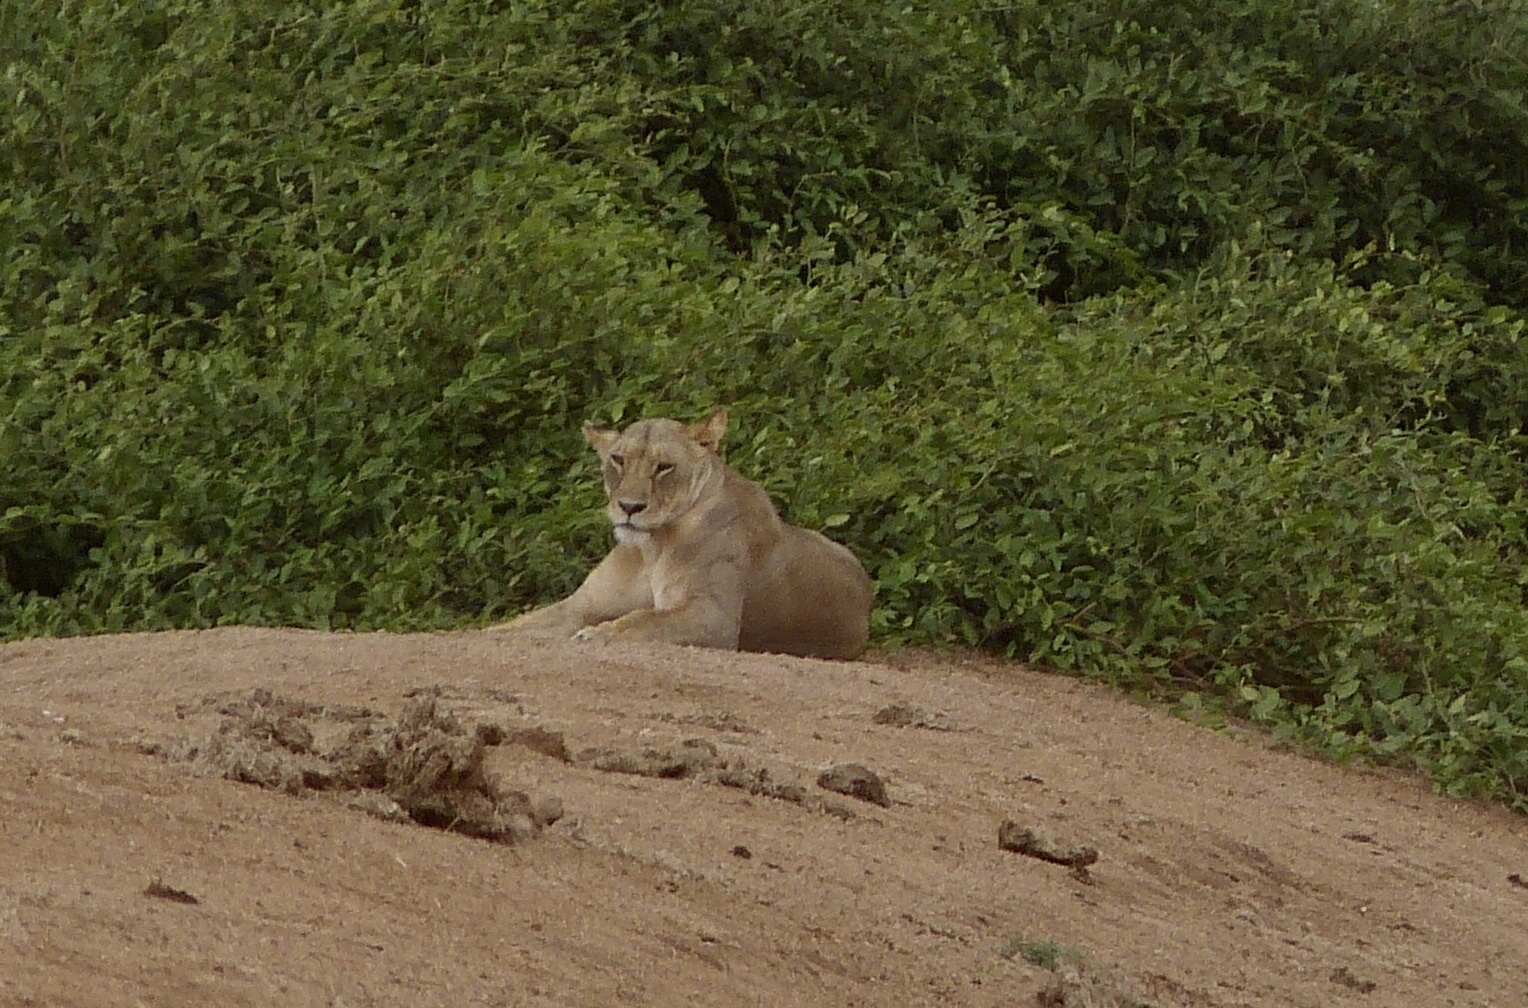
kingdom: Animalia
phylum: Chordata
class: Mammalia
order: Carnivora
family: Felidae
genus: Panthera
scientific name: Panthera leo
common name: Lion
